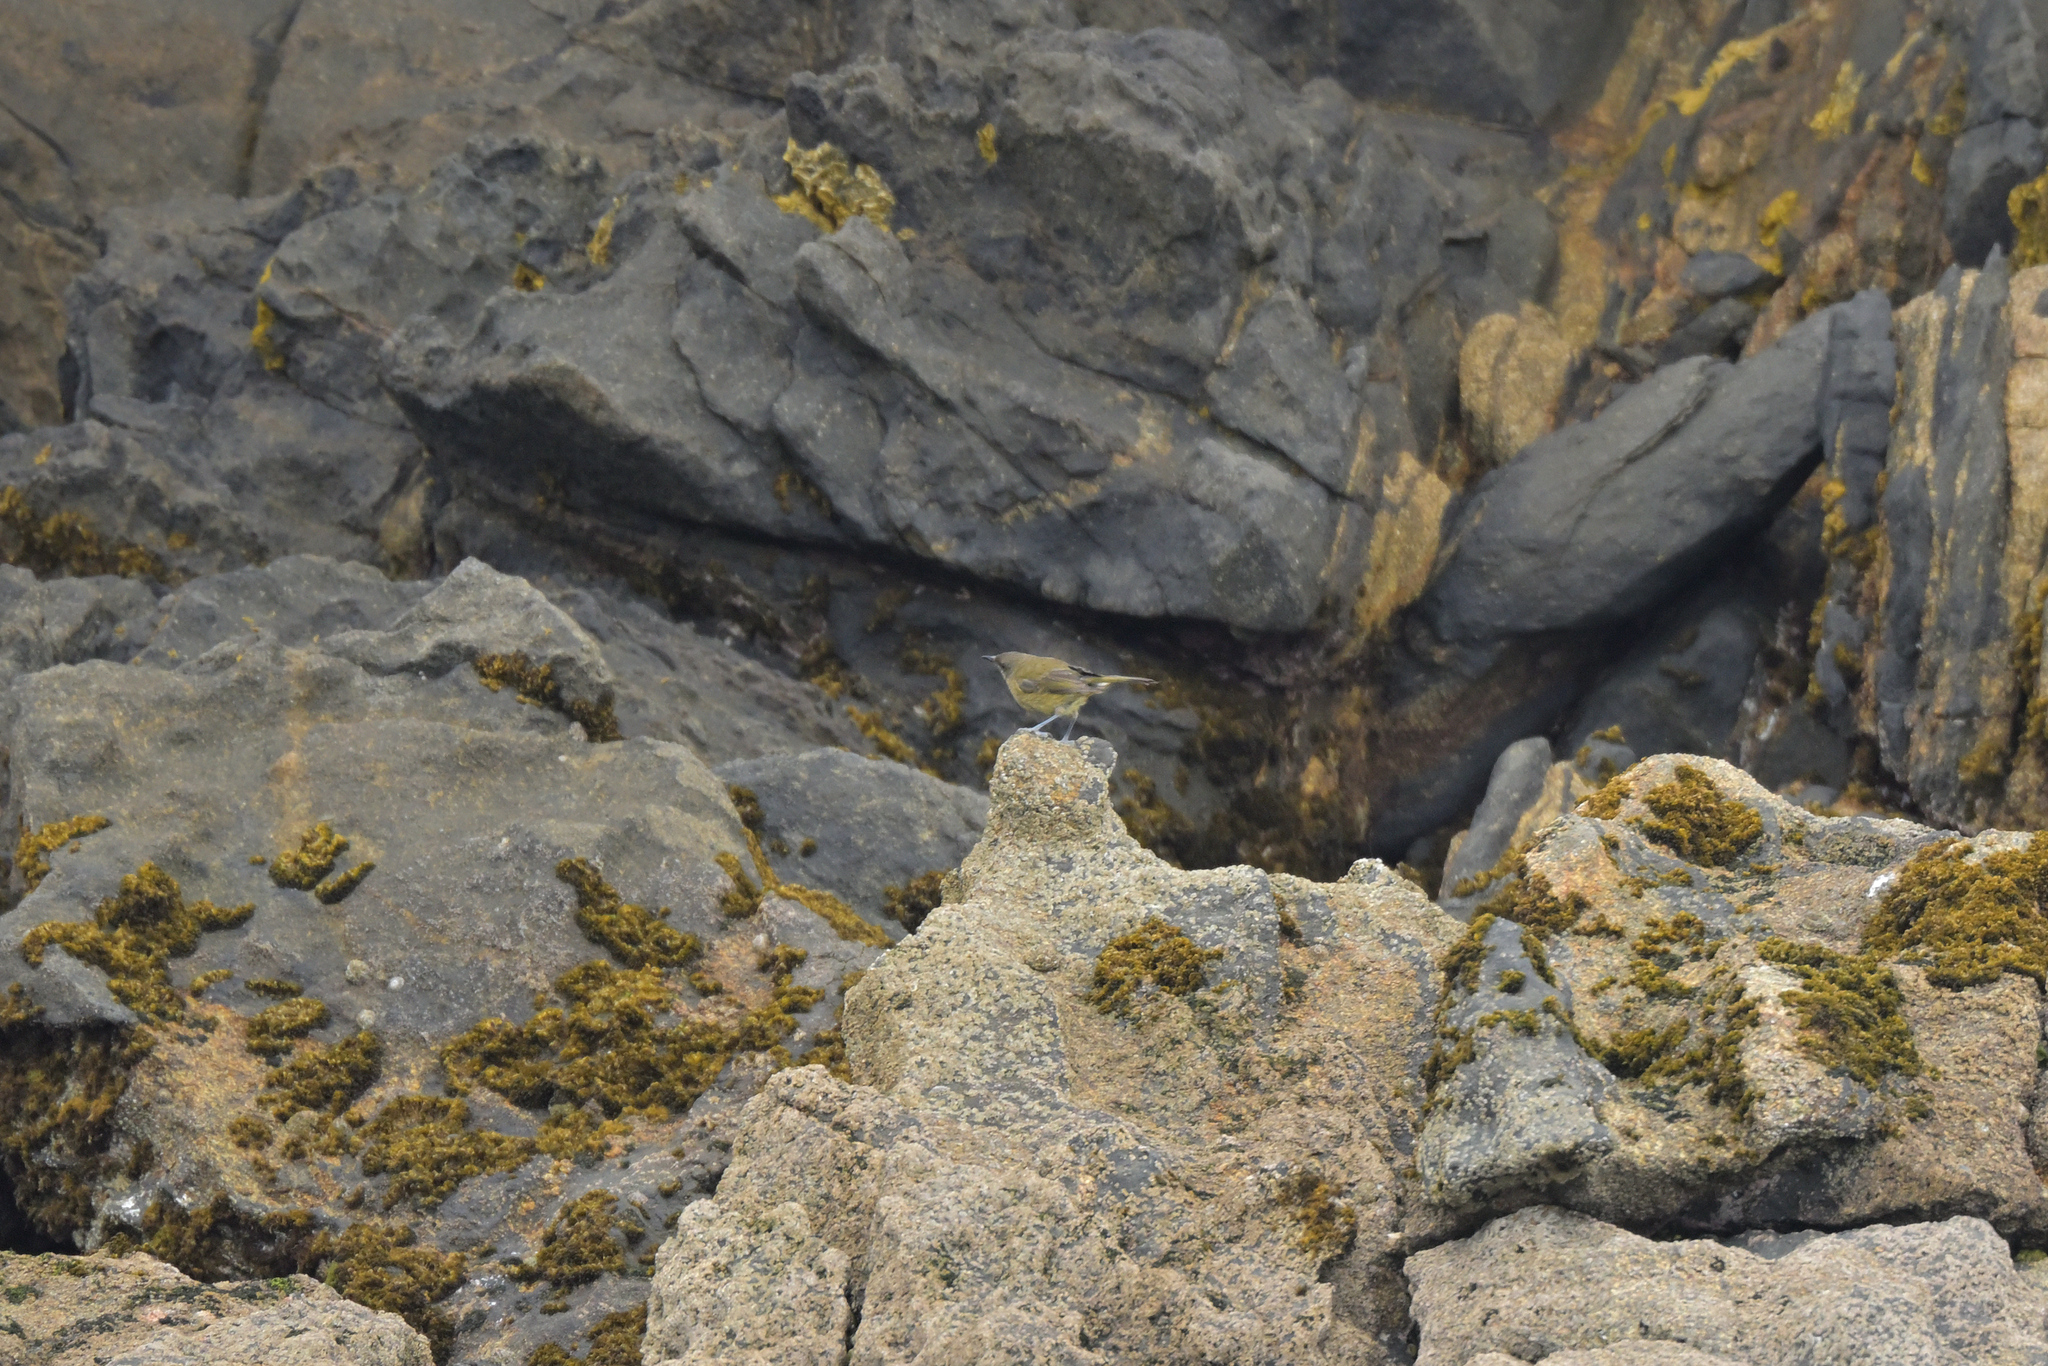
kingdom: Animalia
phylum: Chordata
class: Aves
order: Passeriformes
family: Meliphagidae
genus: Anthornis
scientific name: Anthornis melanura
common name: New zealand bellbird
